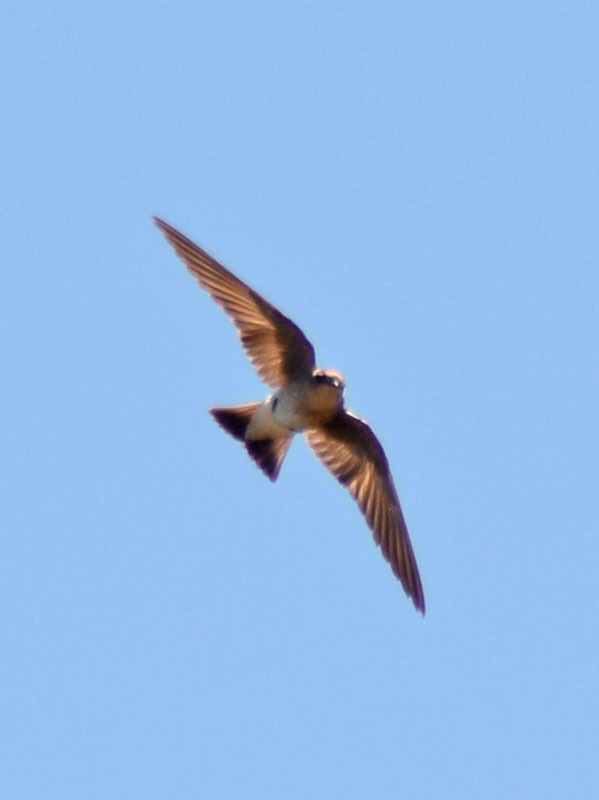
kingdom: Animalia
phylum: Chordata
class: Aves
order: Passeriformes
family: Hirundinidae
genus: Stelgidopteryx
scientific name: Stelgidopteryx serripennis
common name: Northern rough-winged swallow
